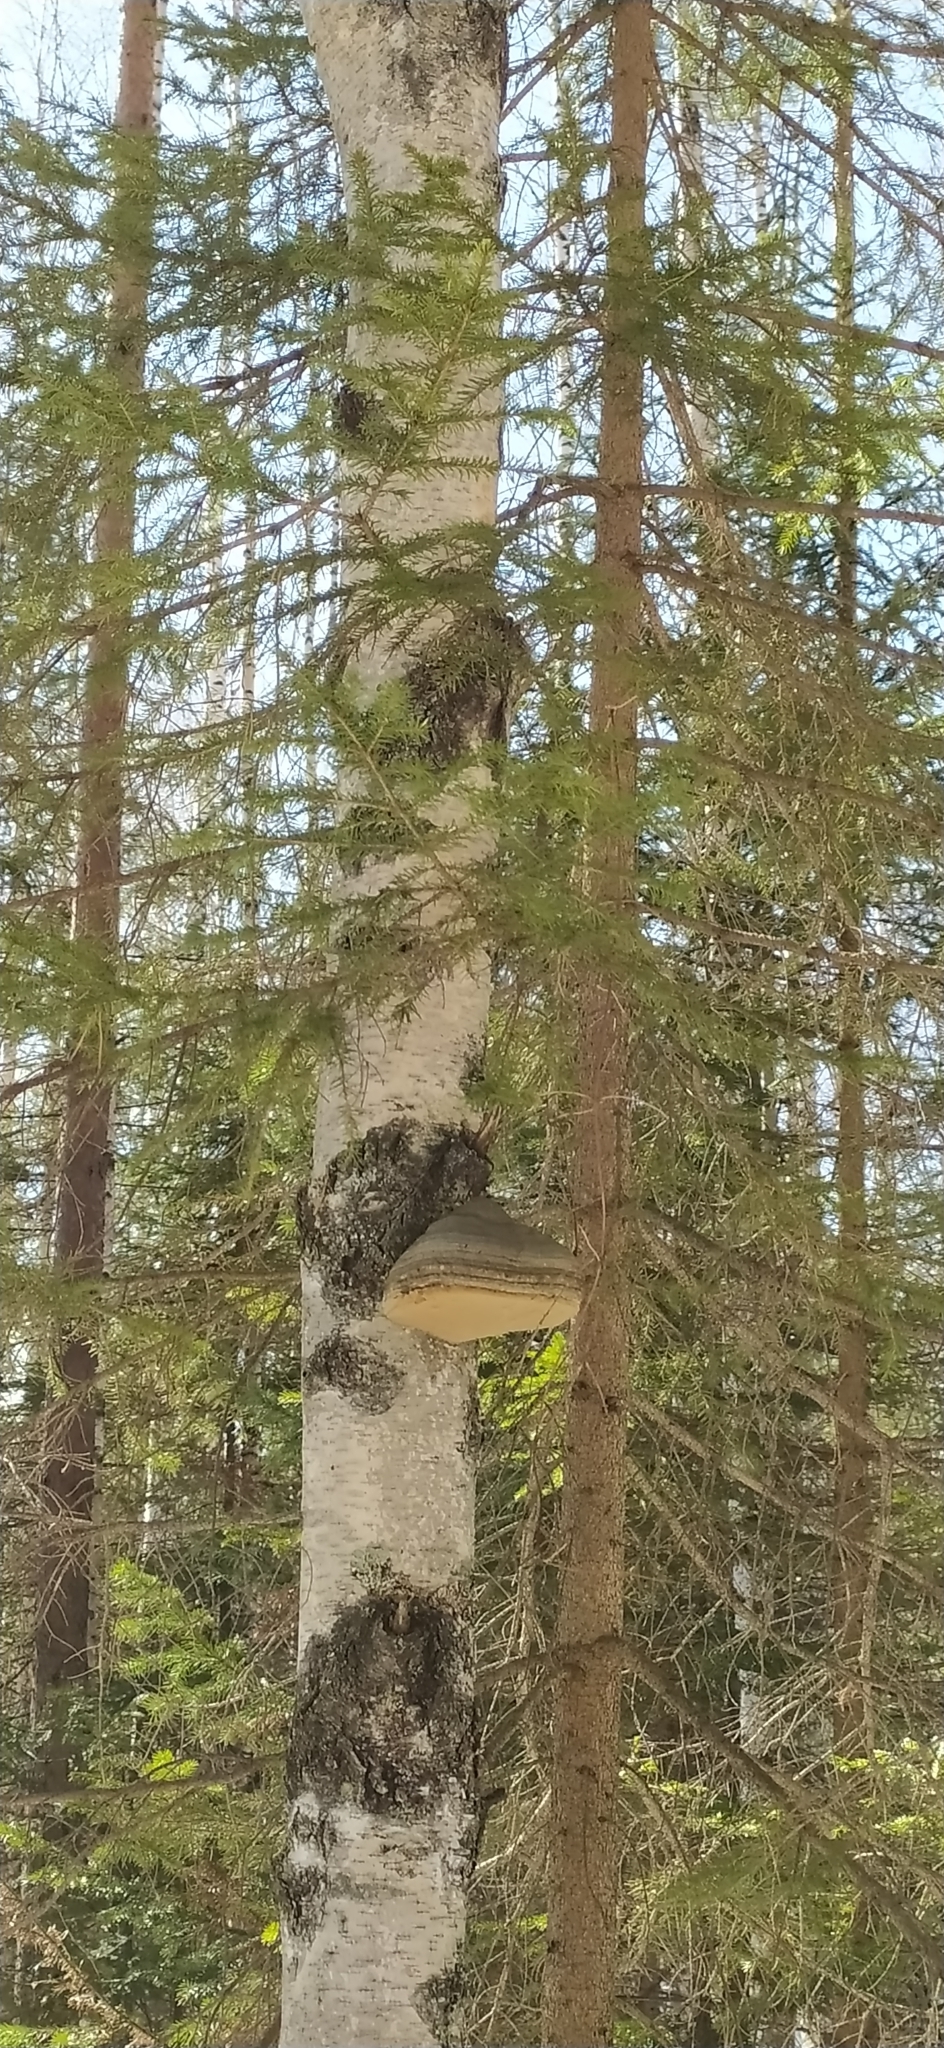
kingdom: Fungi
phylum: Basidiomycota
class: Agaricomycetes
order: Polyporales
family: Polyporaceae
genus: Fomes
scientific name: Fomes fomentarius
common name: Hoof fungus
